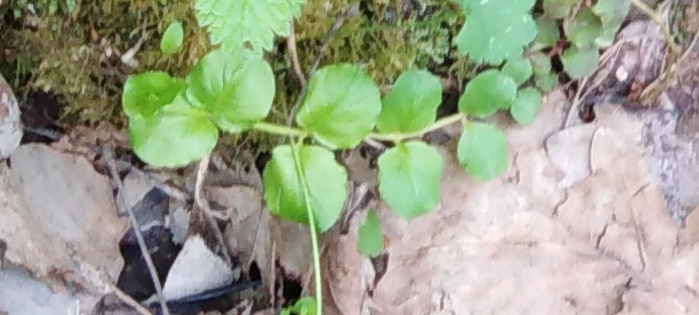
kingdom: Plantae
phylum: Tracheophyta
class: Magnoliopsida
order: Ericales
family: Primulaceae
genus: Lysimachia
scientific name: Lysimachia nummularia
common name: Moneywort
